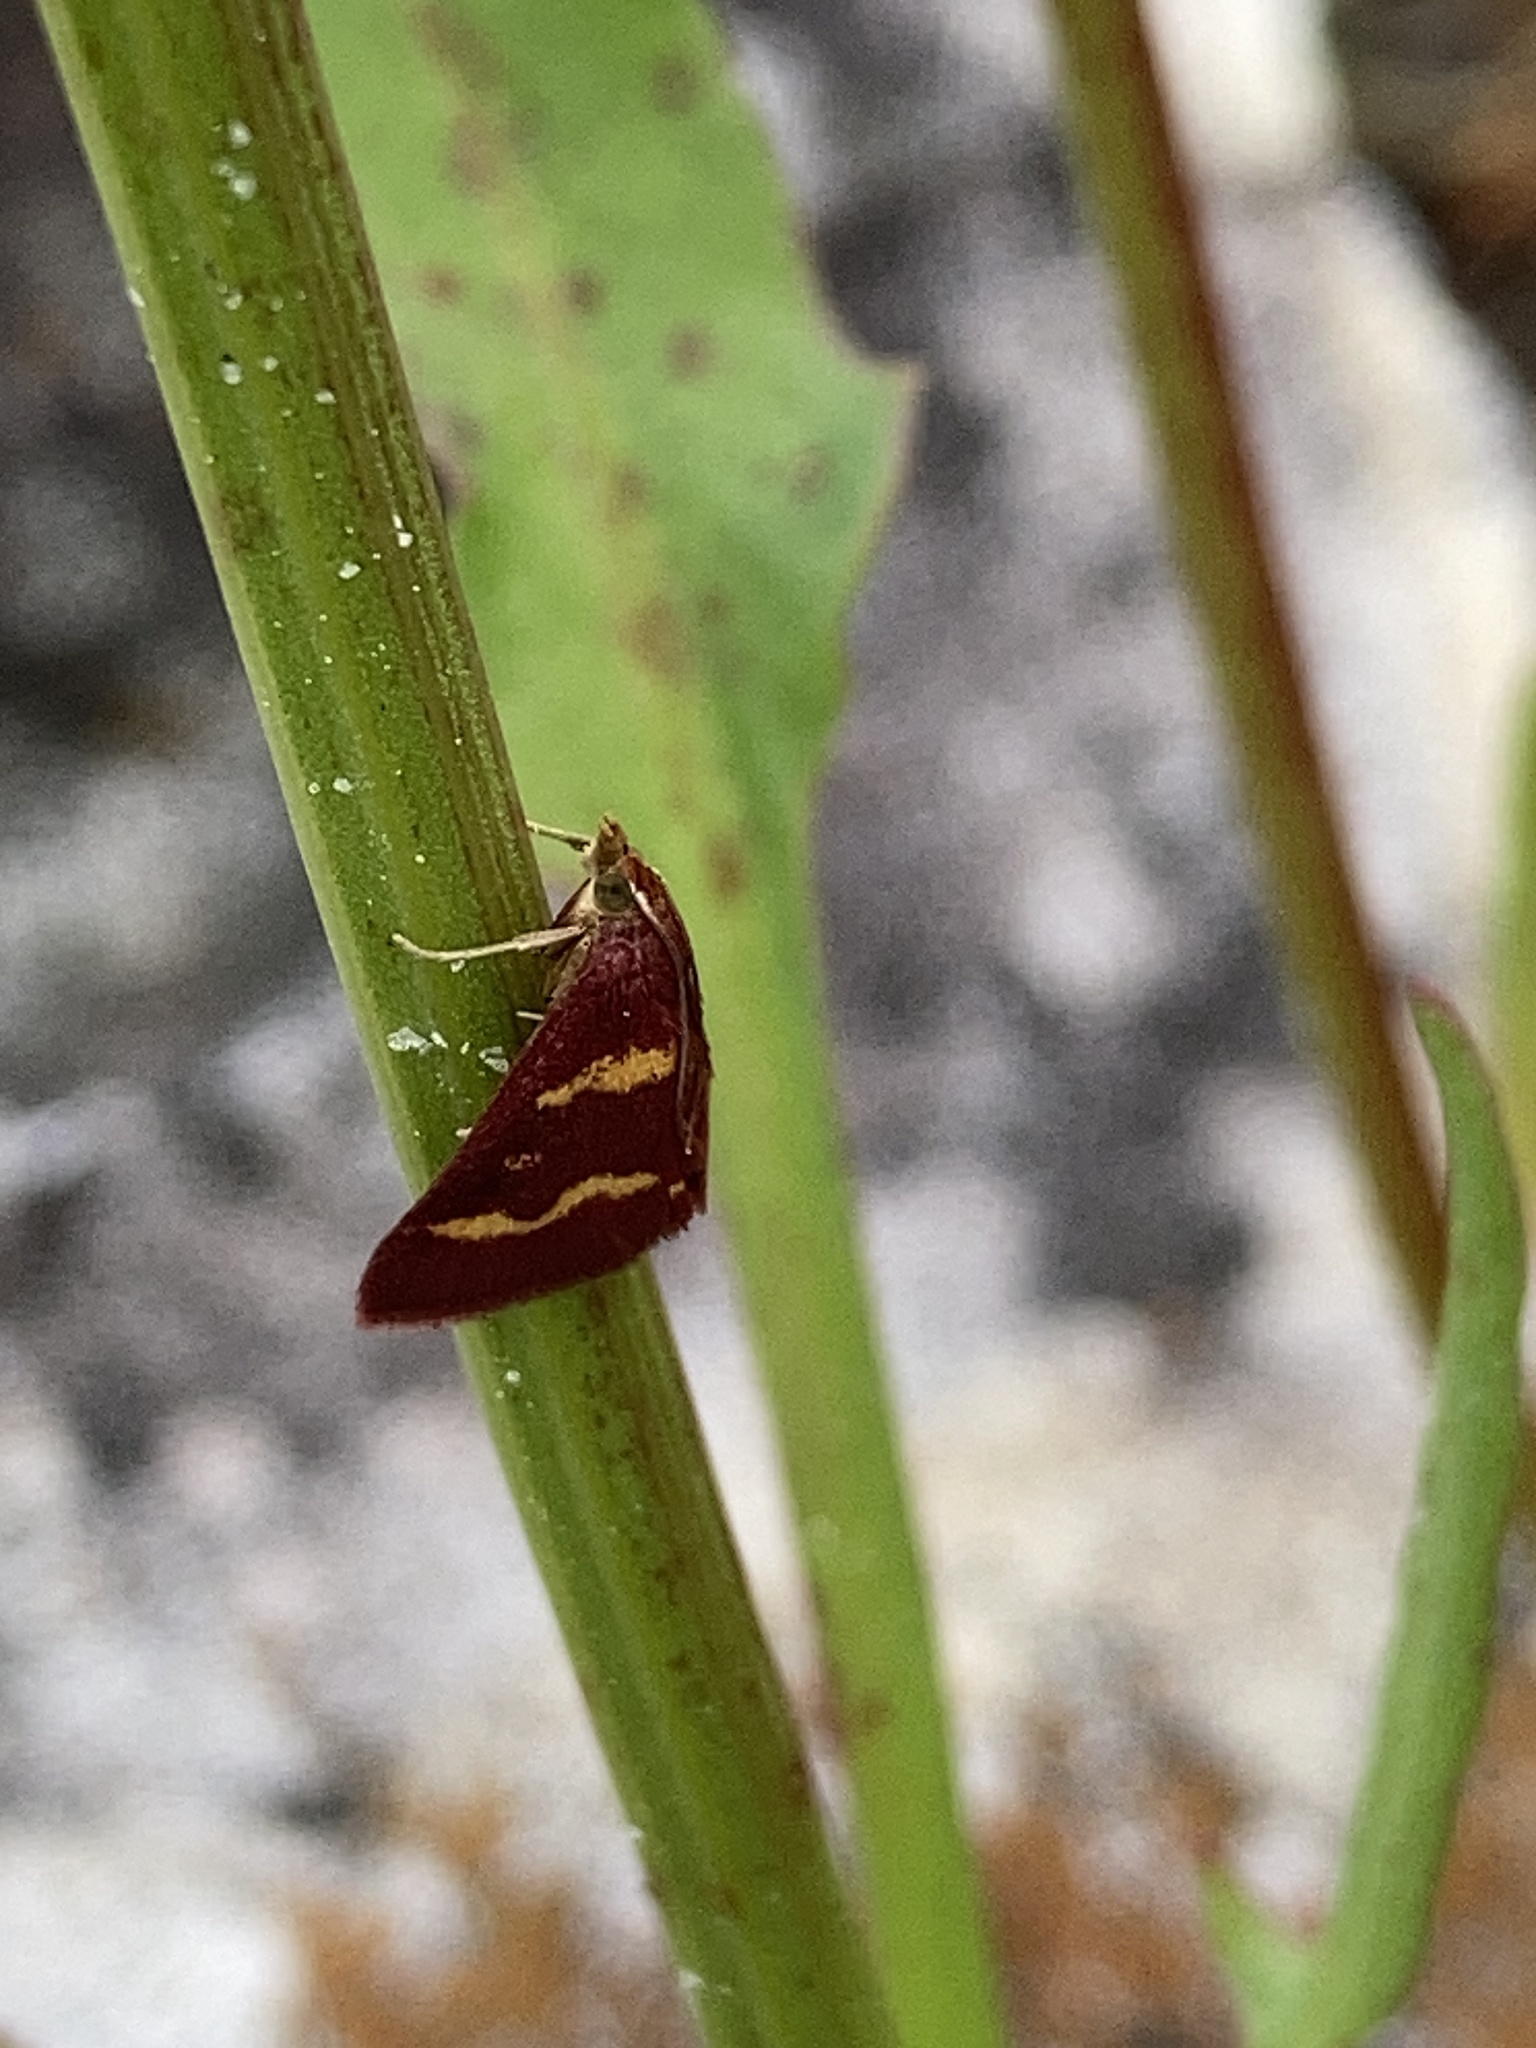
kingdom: Animalia
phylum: Arthropoda
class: Insecta
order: Lepidoptera
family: Crambidae
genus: Pyrausta
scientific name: Pyrausta tyralis
